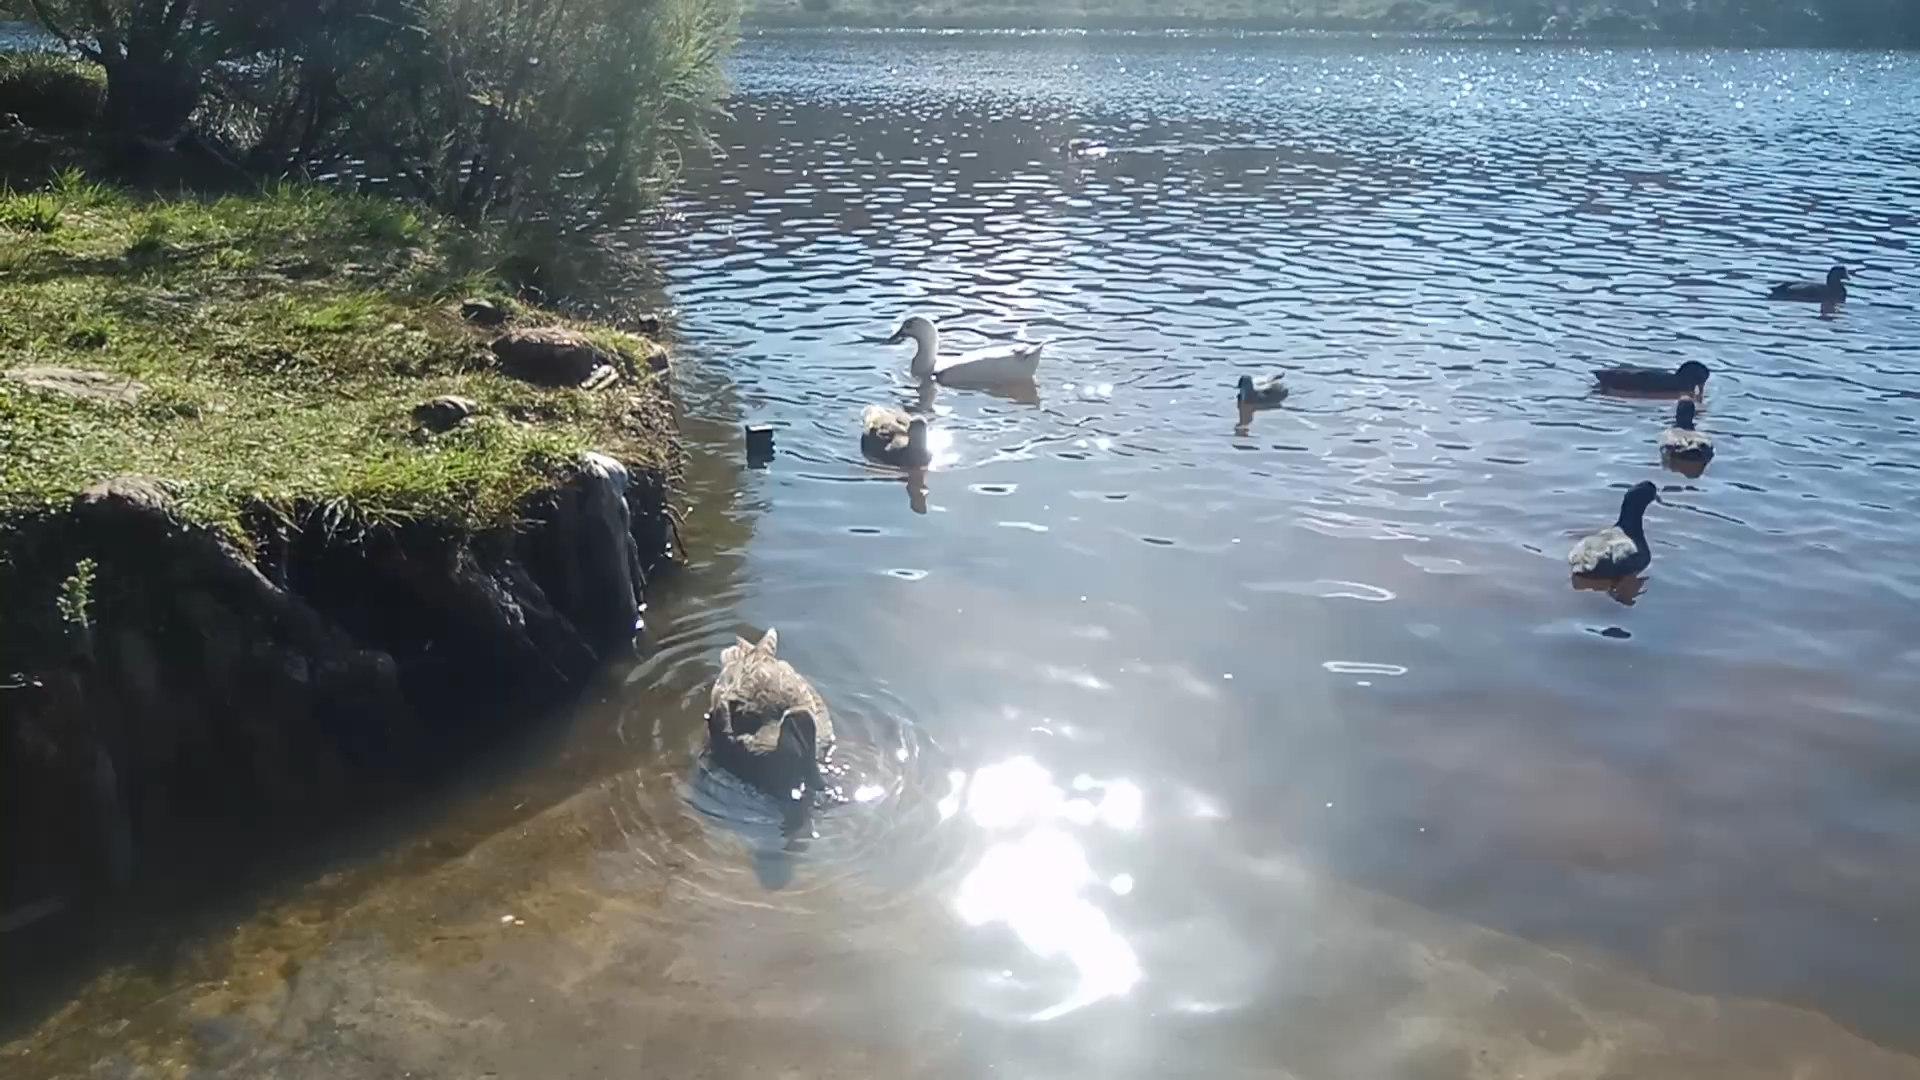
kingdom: Animalia
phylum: Chordata
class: Aves
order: Anseriformes
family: Anatidae
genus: Anas
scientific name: Anas platyrhynchos
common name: Mallard
